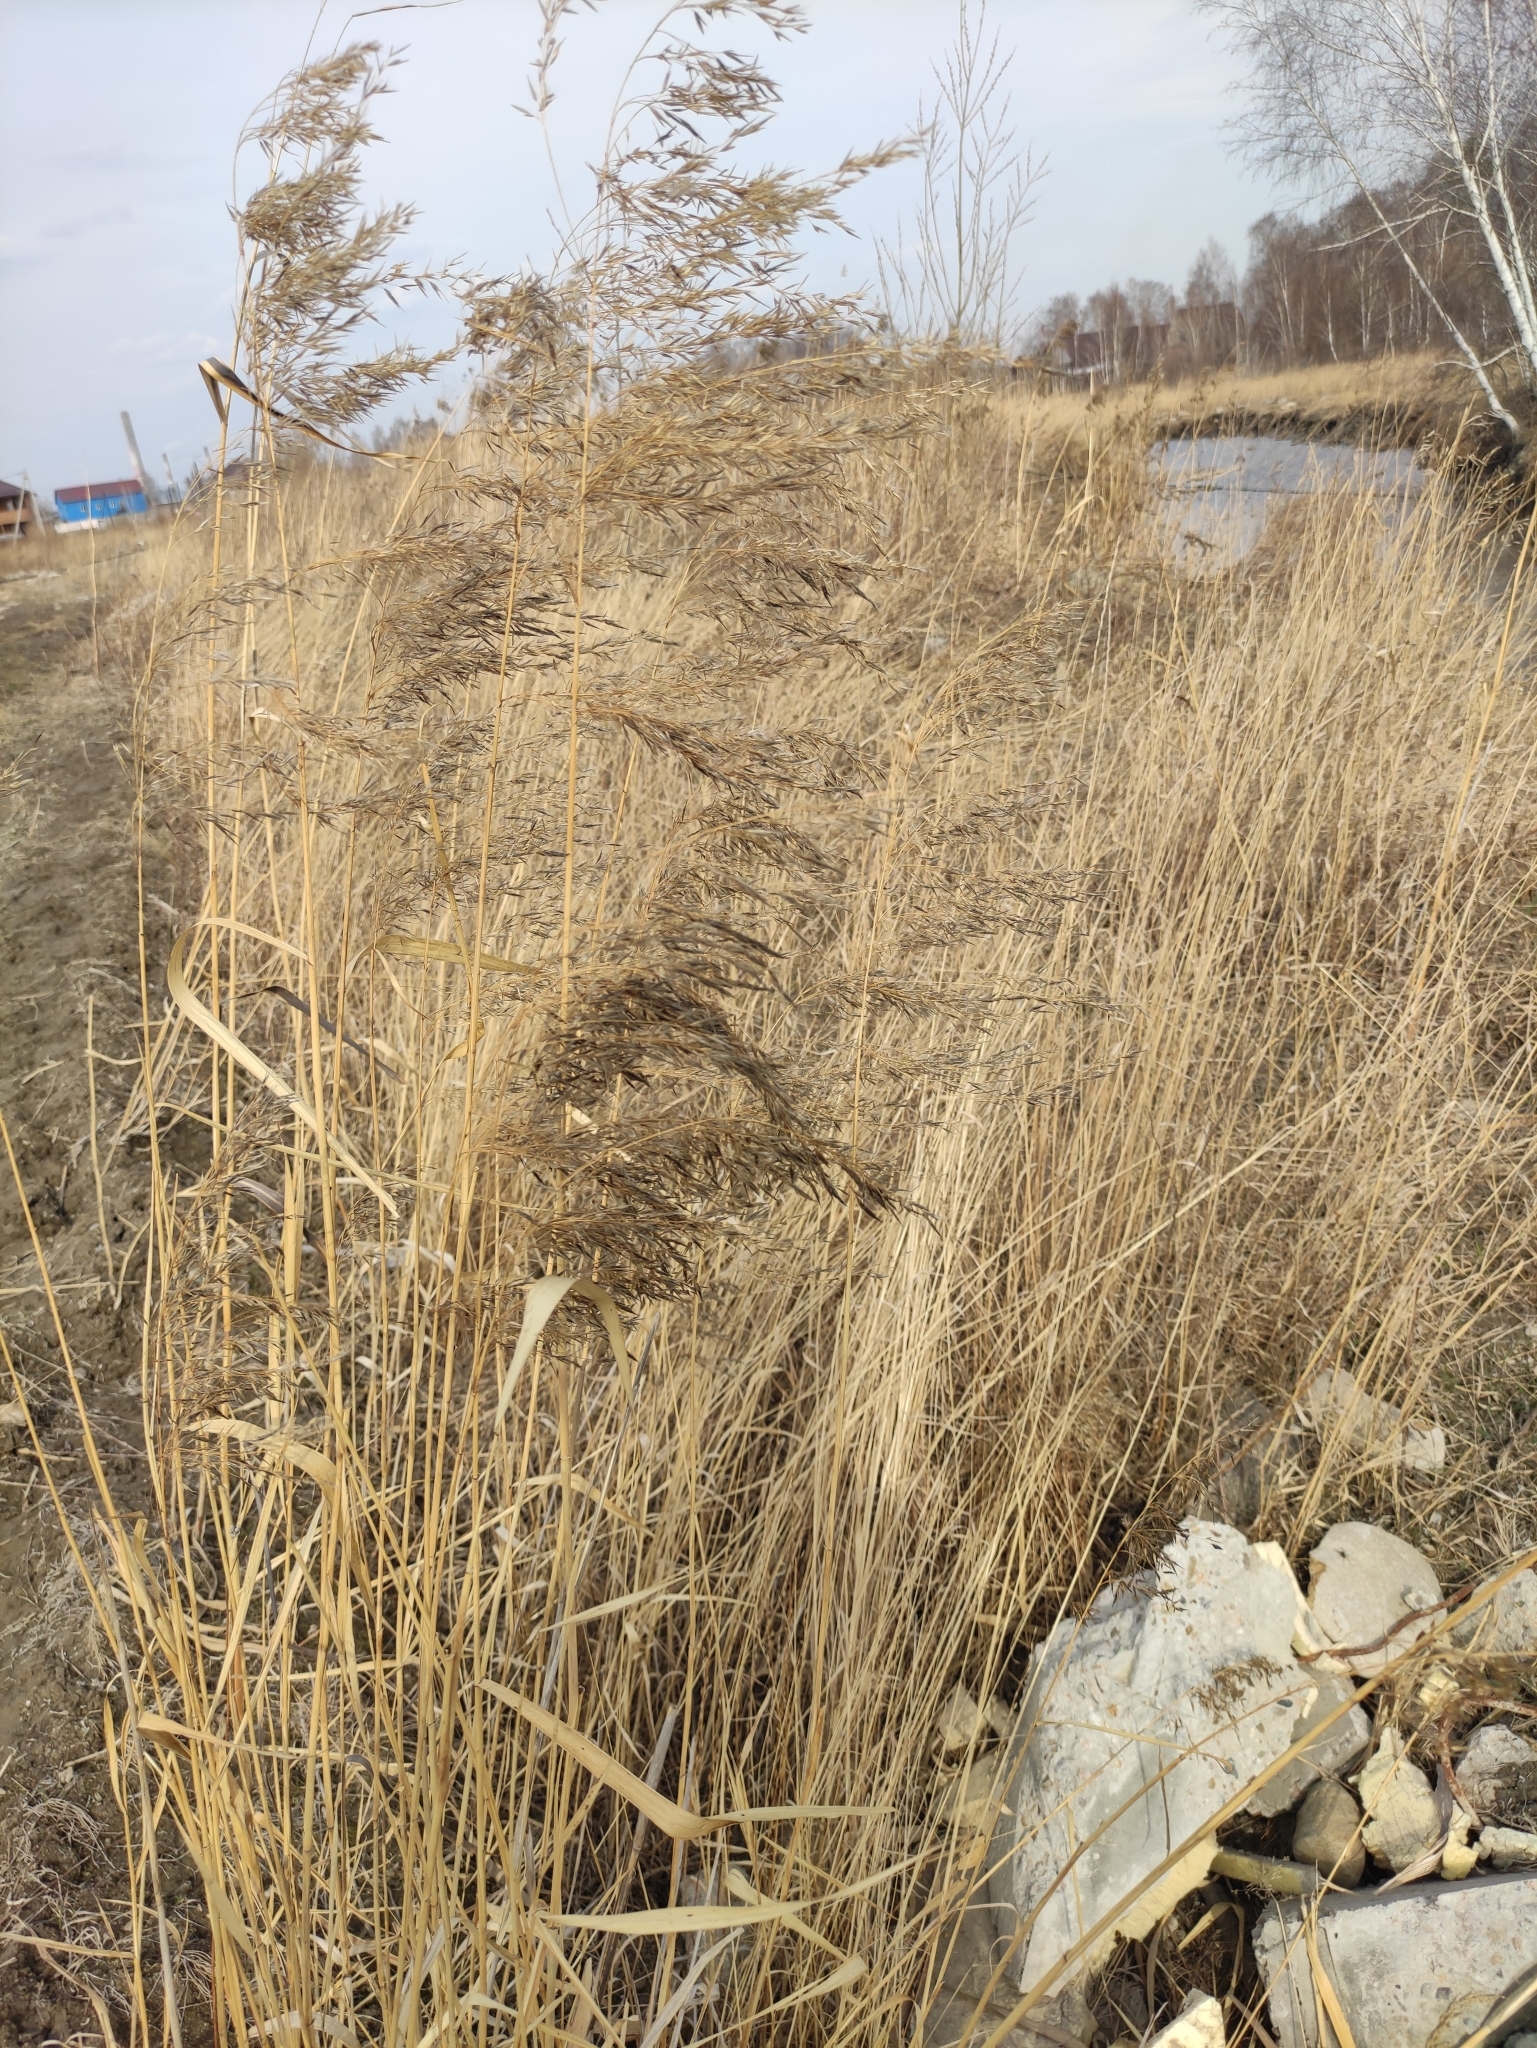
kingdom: Plantae
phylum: Tracheophyta
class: Liliopsida
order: Poales
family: Poaceae
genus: Phragmites
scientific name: Phragmites australis
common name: Common reed
